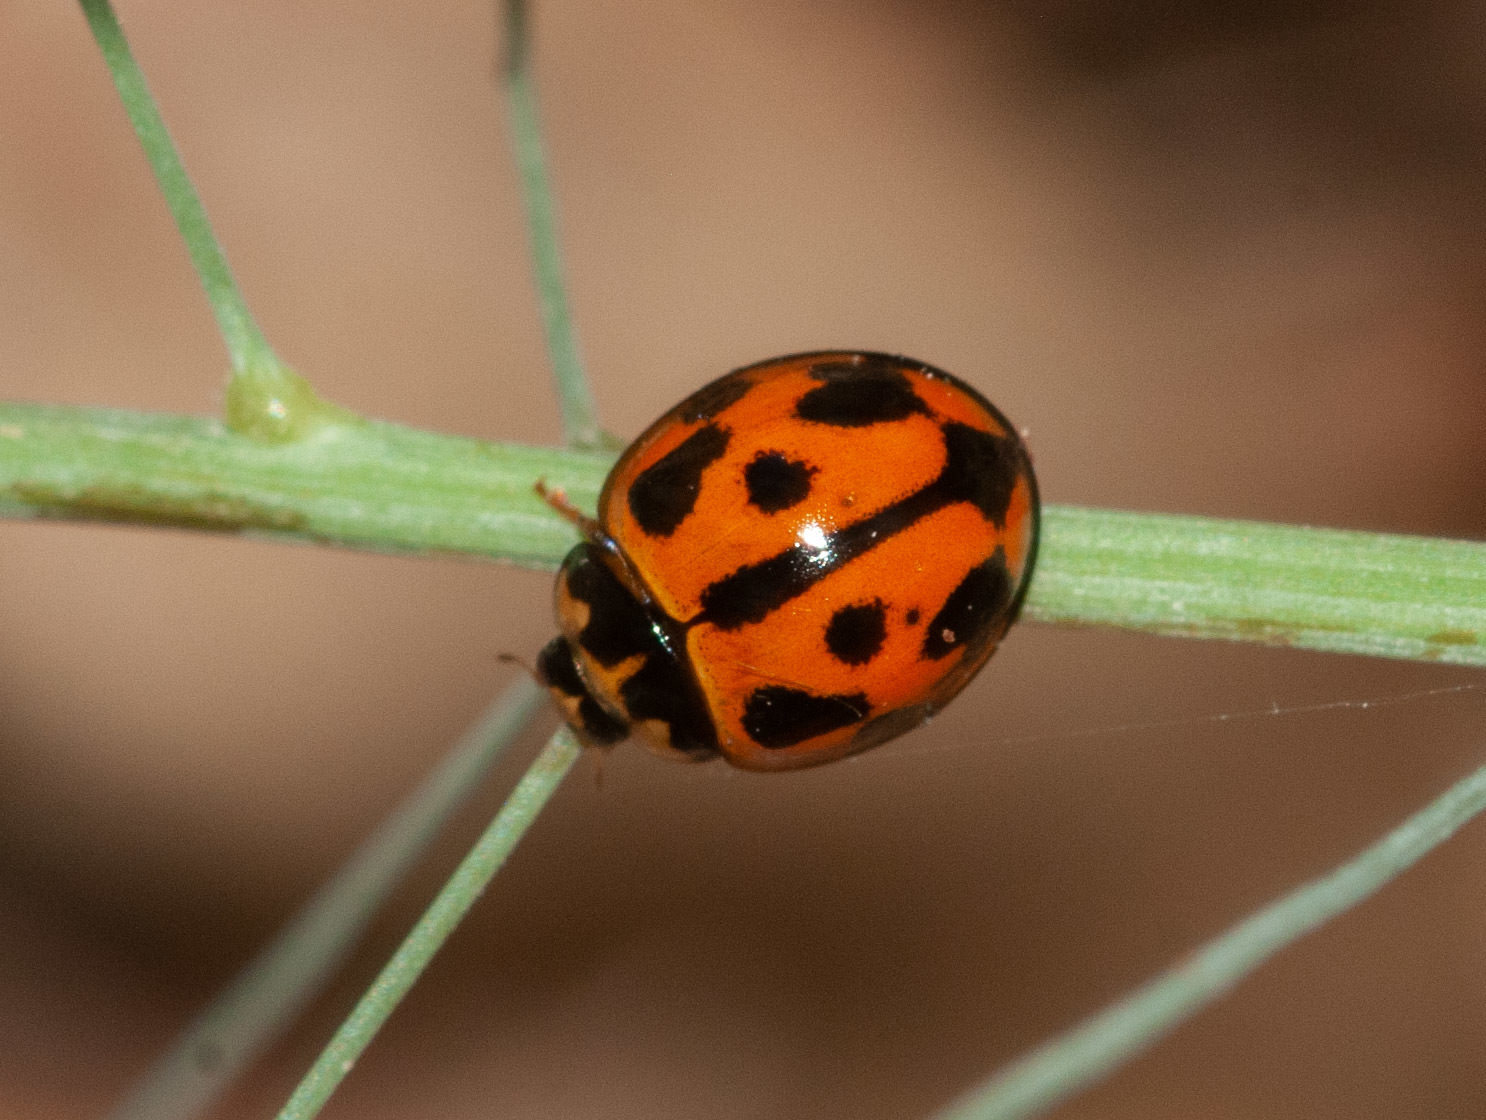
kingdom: Animalia
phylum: Arthropoda
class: Insecta
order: Coleoptera
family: Coccinellidae
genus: Coelophora
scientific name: Coelophora inaequalis
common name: Common australian lady beetle
